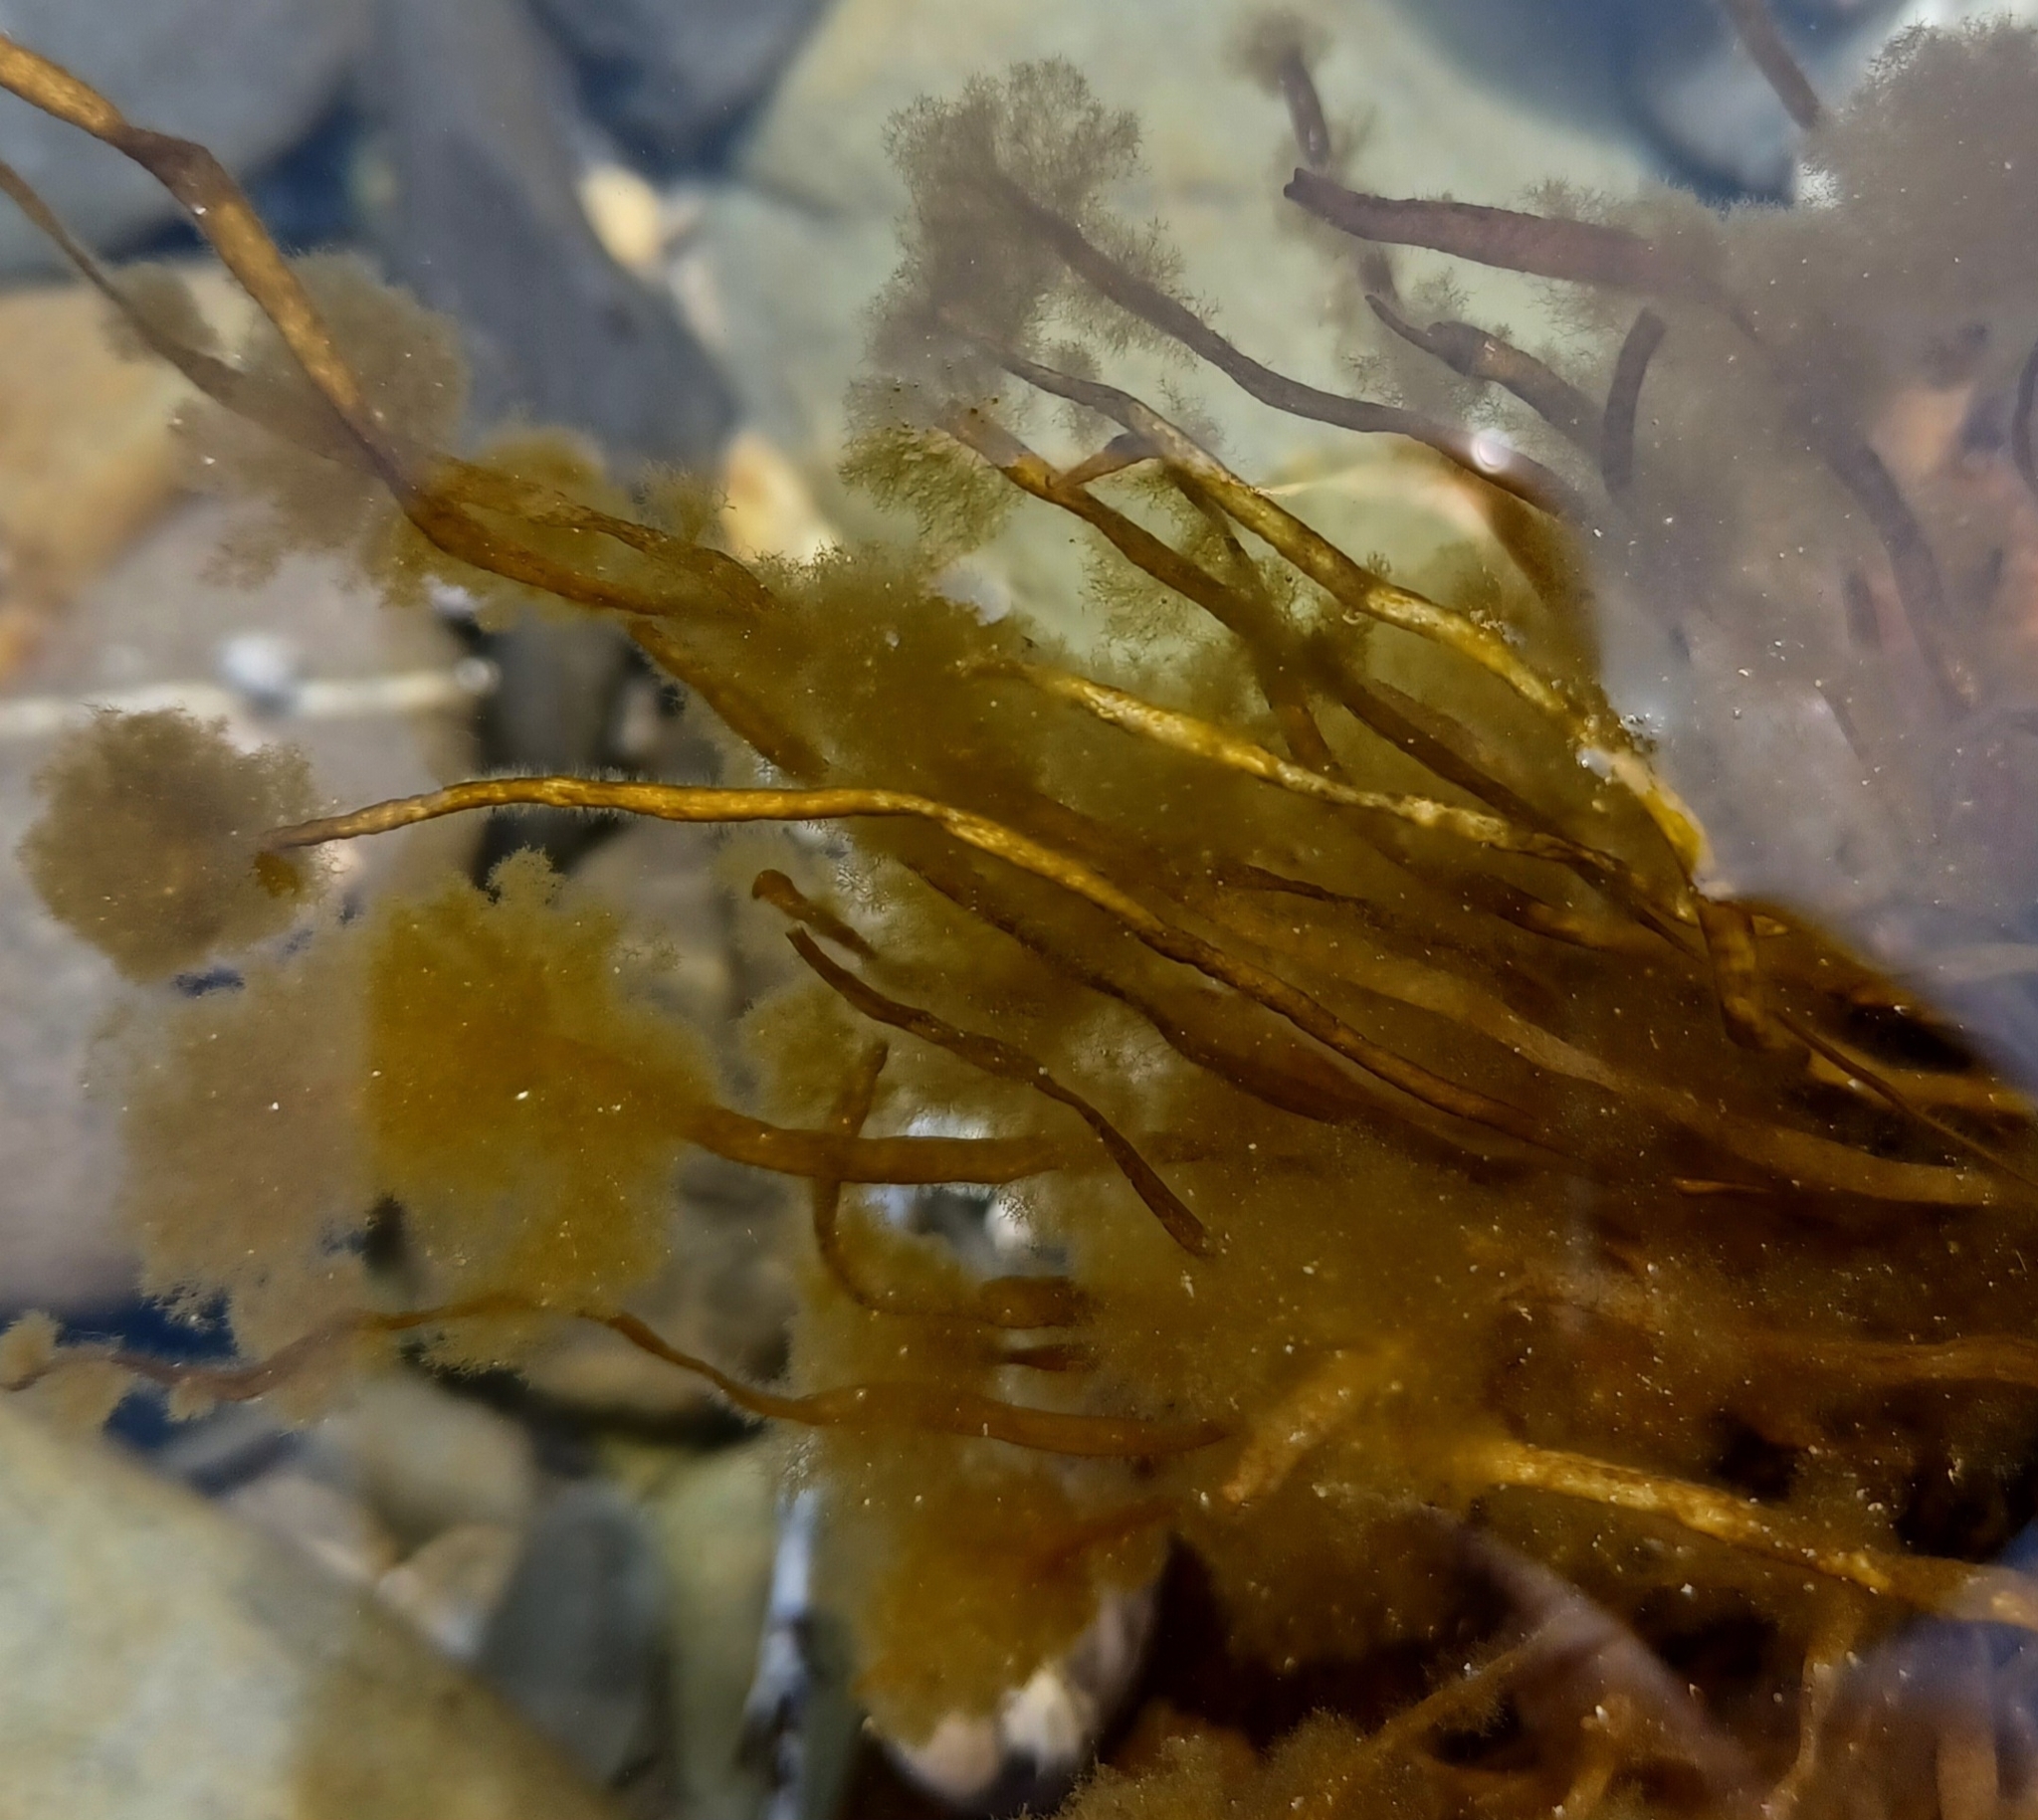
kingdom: Chromista
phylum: Ochrophyta
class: Phaeophyceae
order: Scytosiphonales
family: Scytosiphonaceae
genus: Scytosiphon
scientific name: Scytosiphon lomentaria
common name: Beanweed
